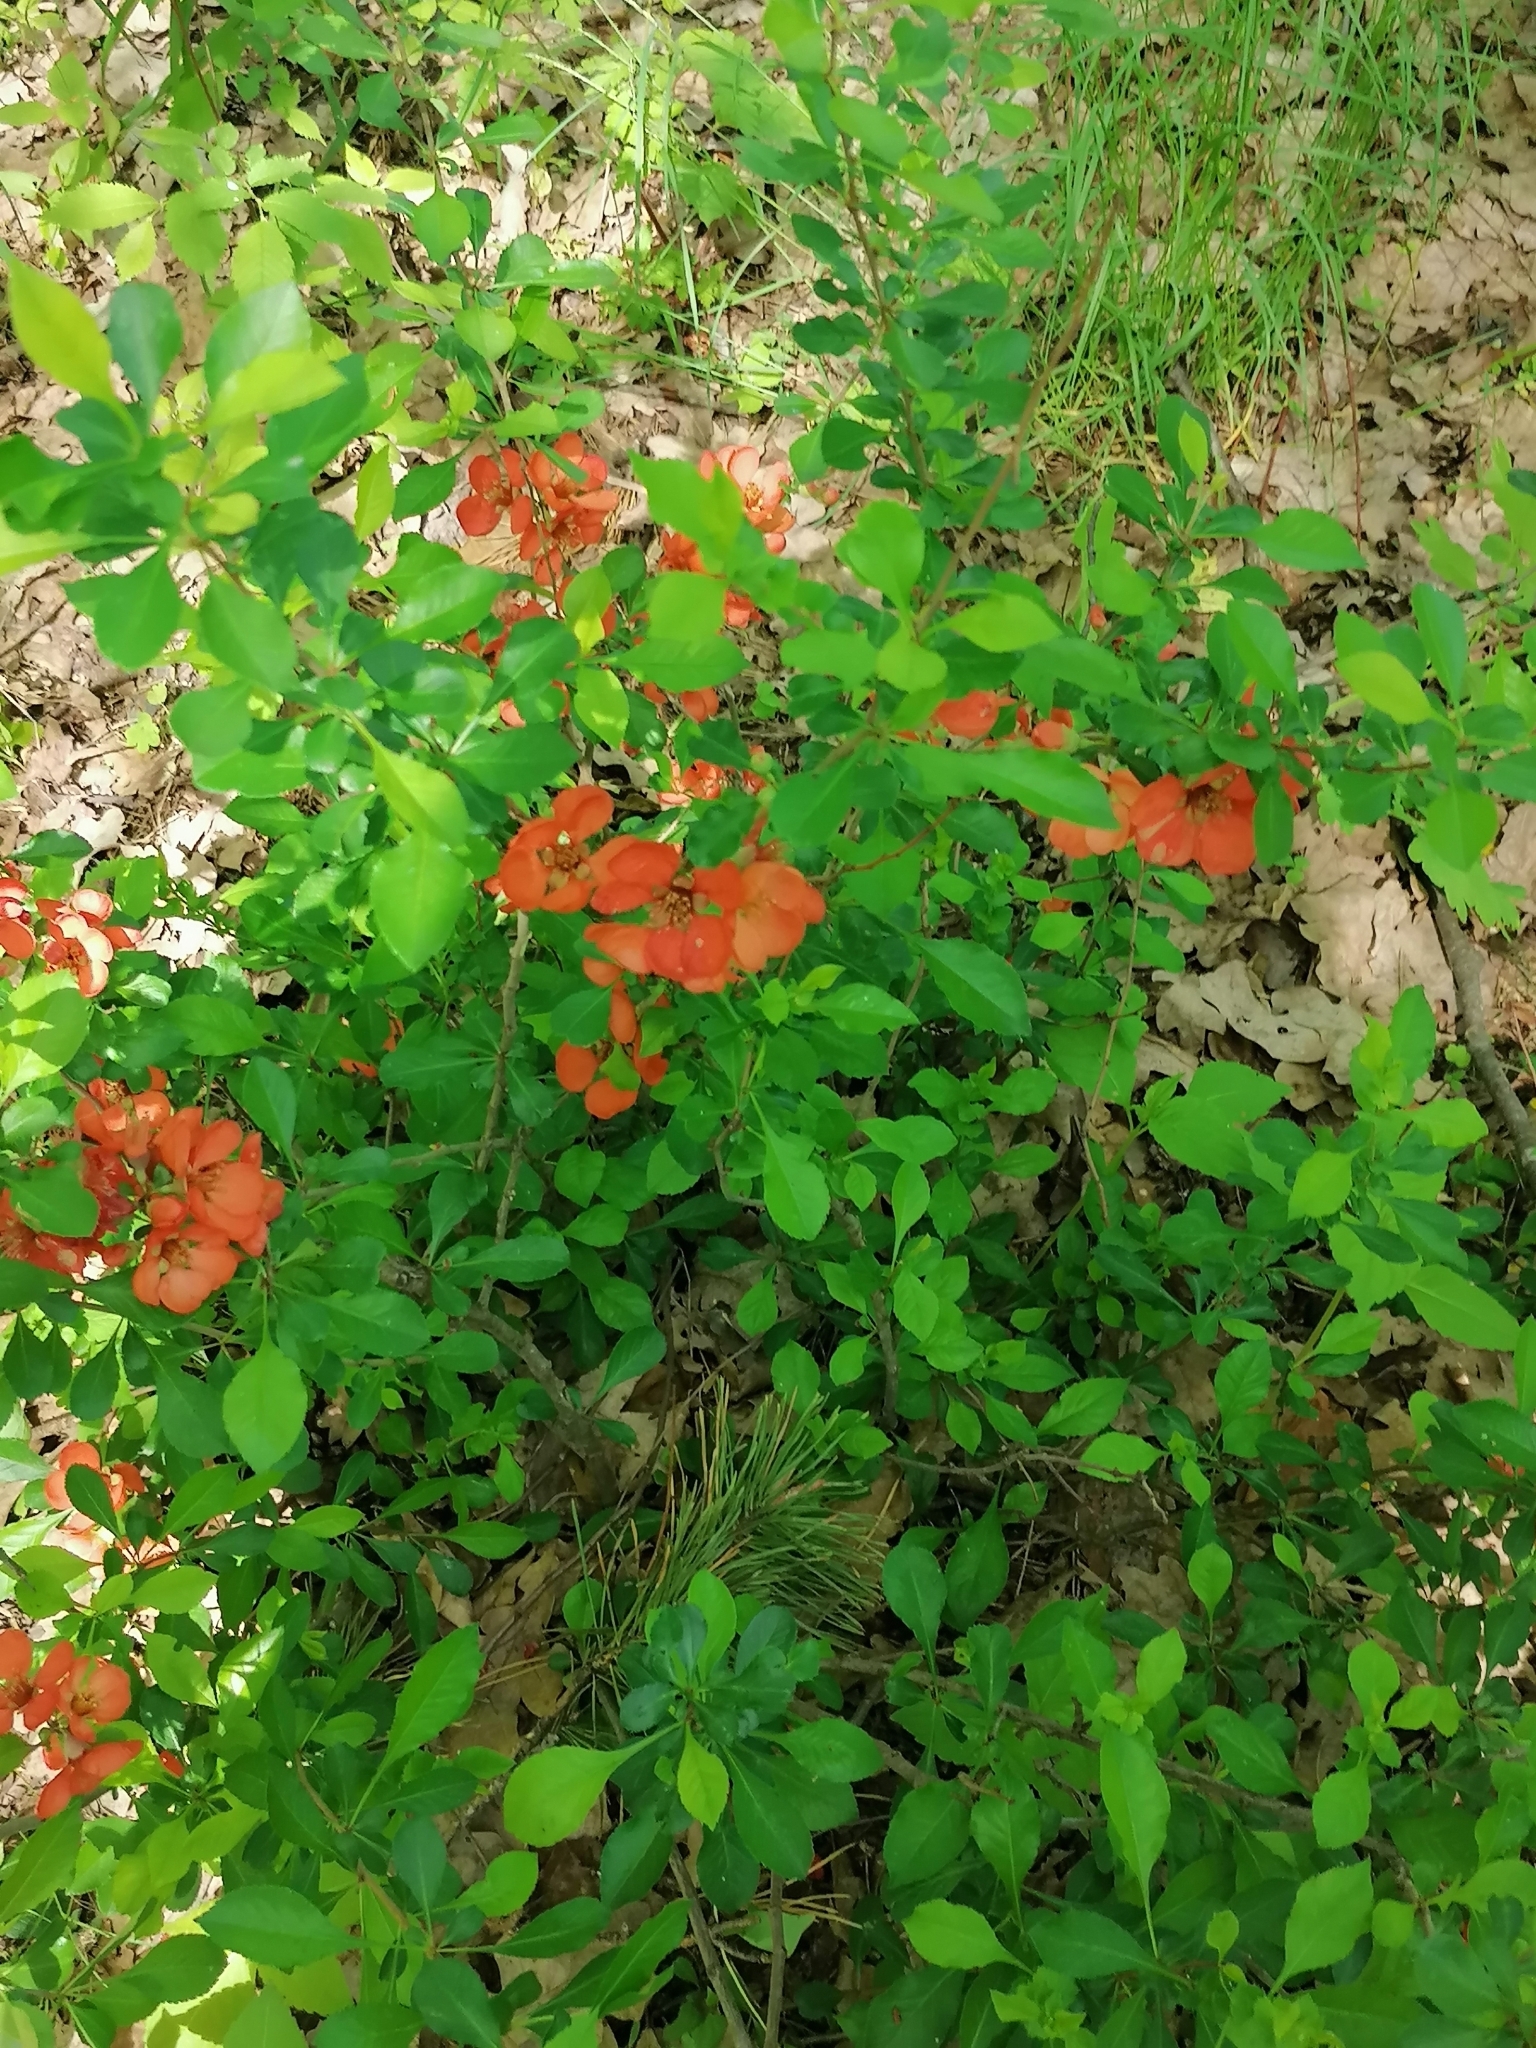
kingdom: Plantae
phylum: Tracheophyta
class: Magnoliopsida
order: Rosales
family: Rosaceae
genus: Chaenomeles
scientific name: Chaenomeles japonica
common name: Japanese quince
